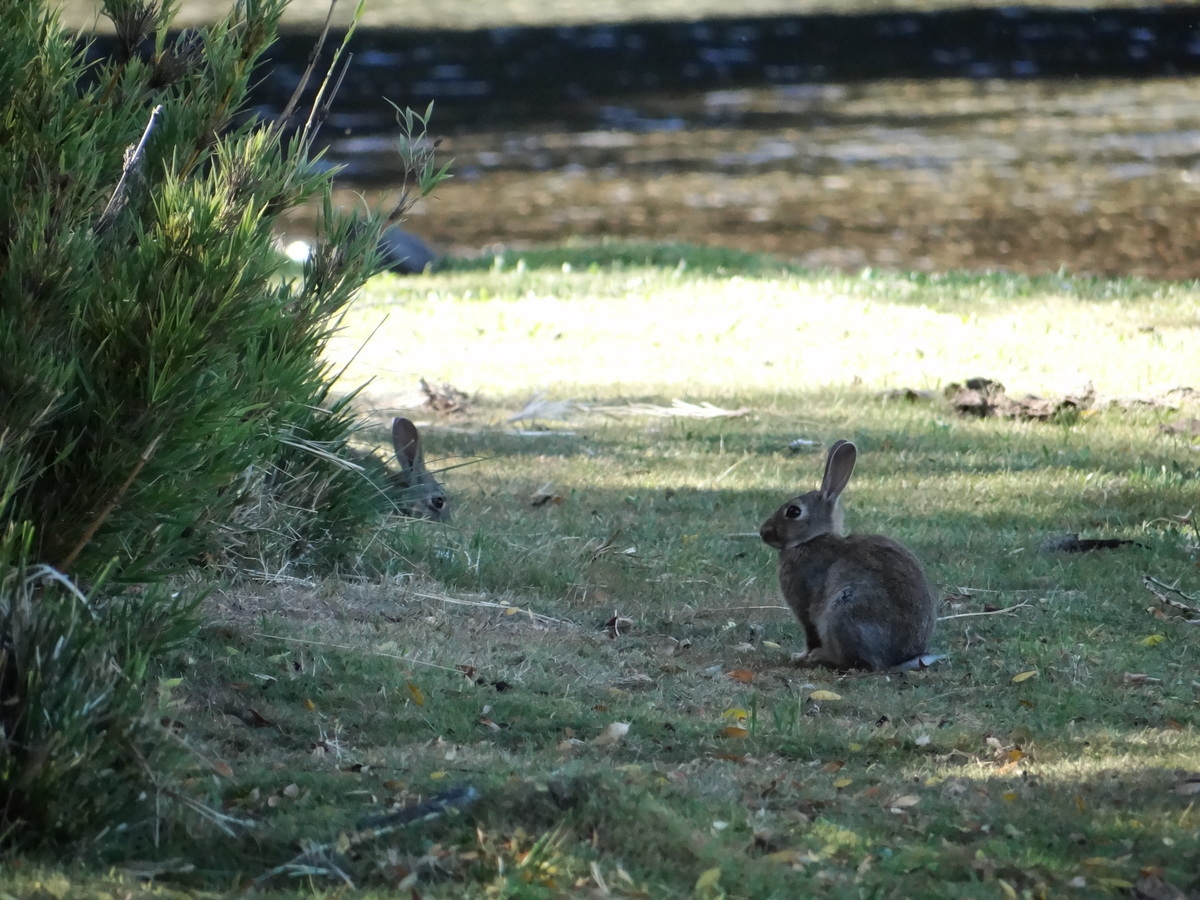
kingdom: Animalia
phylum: Chordata
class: Mammalia
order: Lagomorpha
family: Leporidae
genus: Oryctolagus
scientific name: Oryctolagus cuniculus
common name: European rabbit
